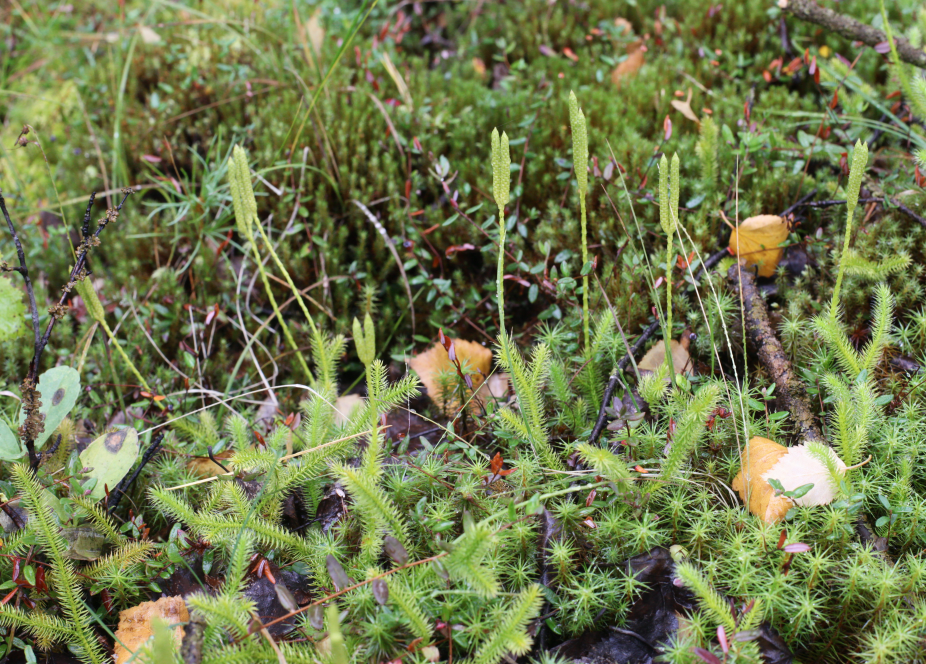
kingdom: Plantae
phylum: Tracheophyta
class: Lycopodiopsida
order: Lycopodiales
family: Lycopodiaceae
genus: Lycopodium
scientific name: Lycopodium clavatum
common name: Stag's-horn clubmoss
